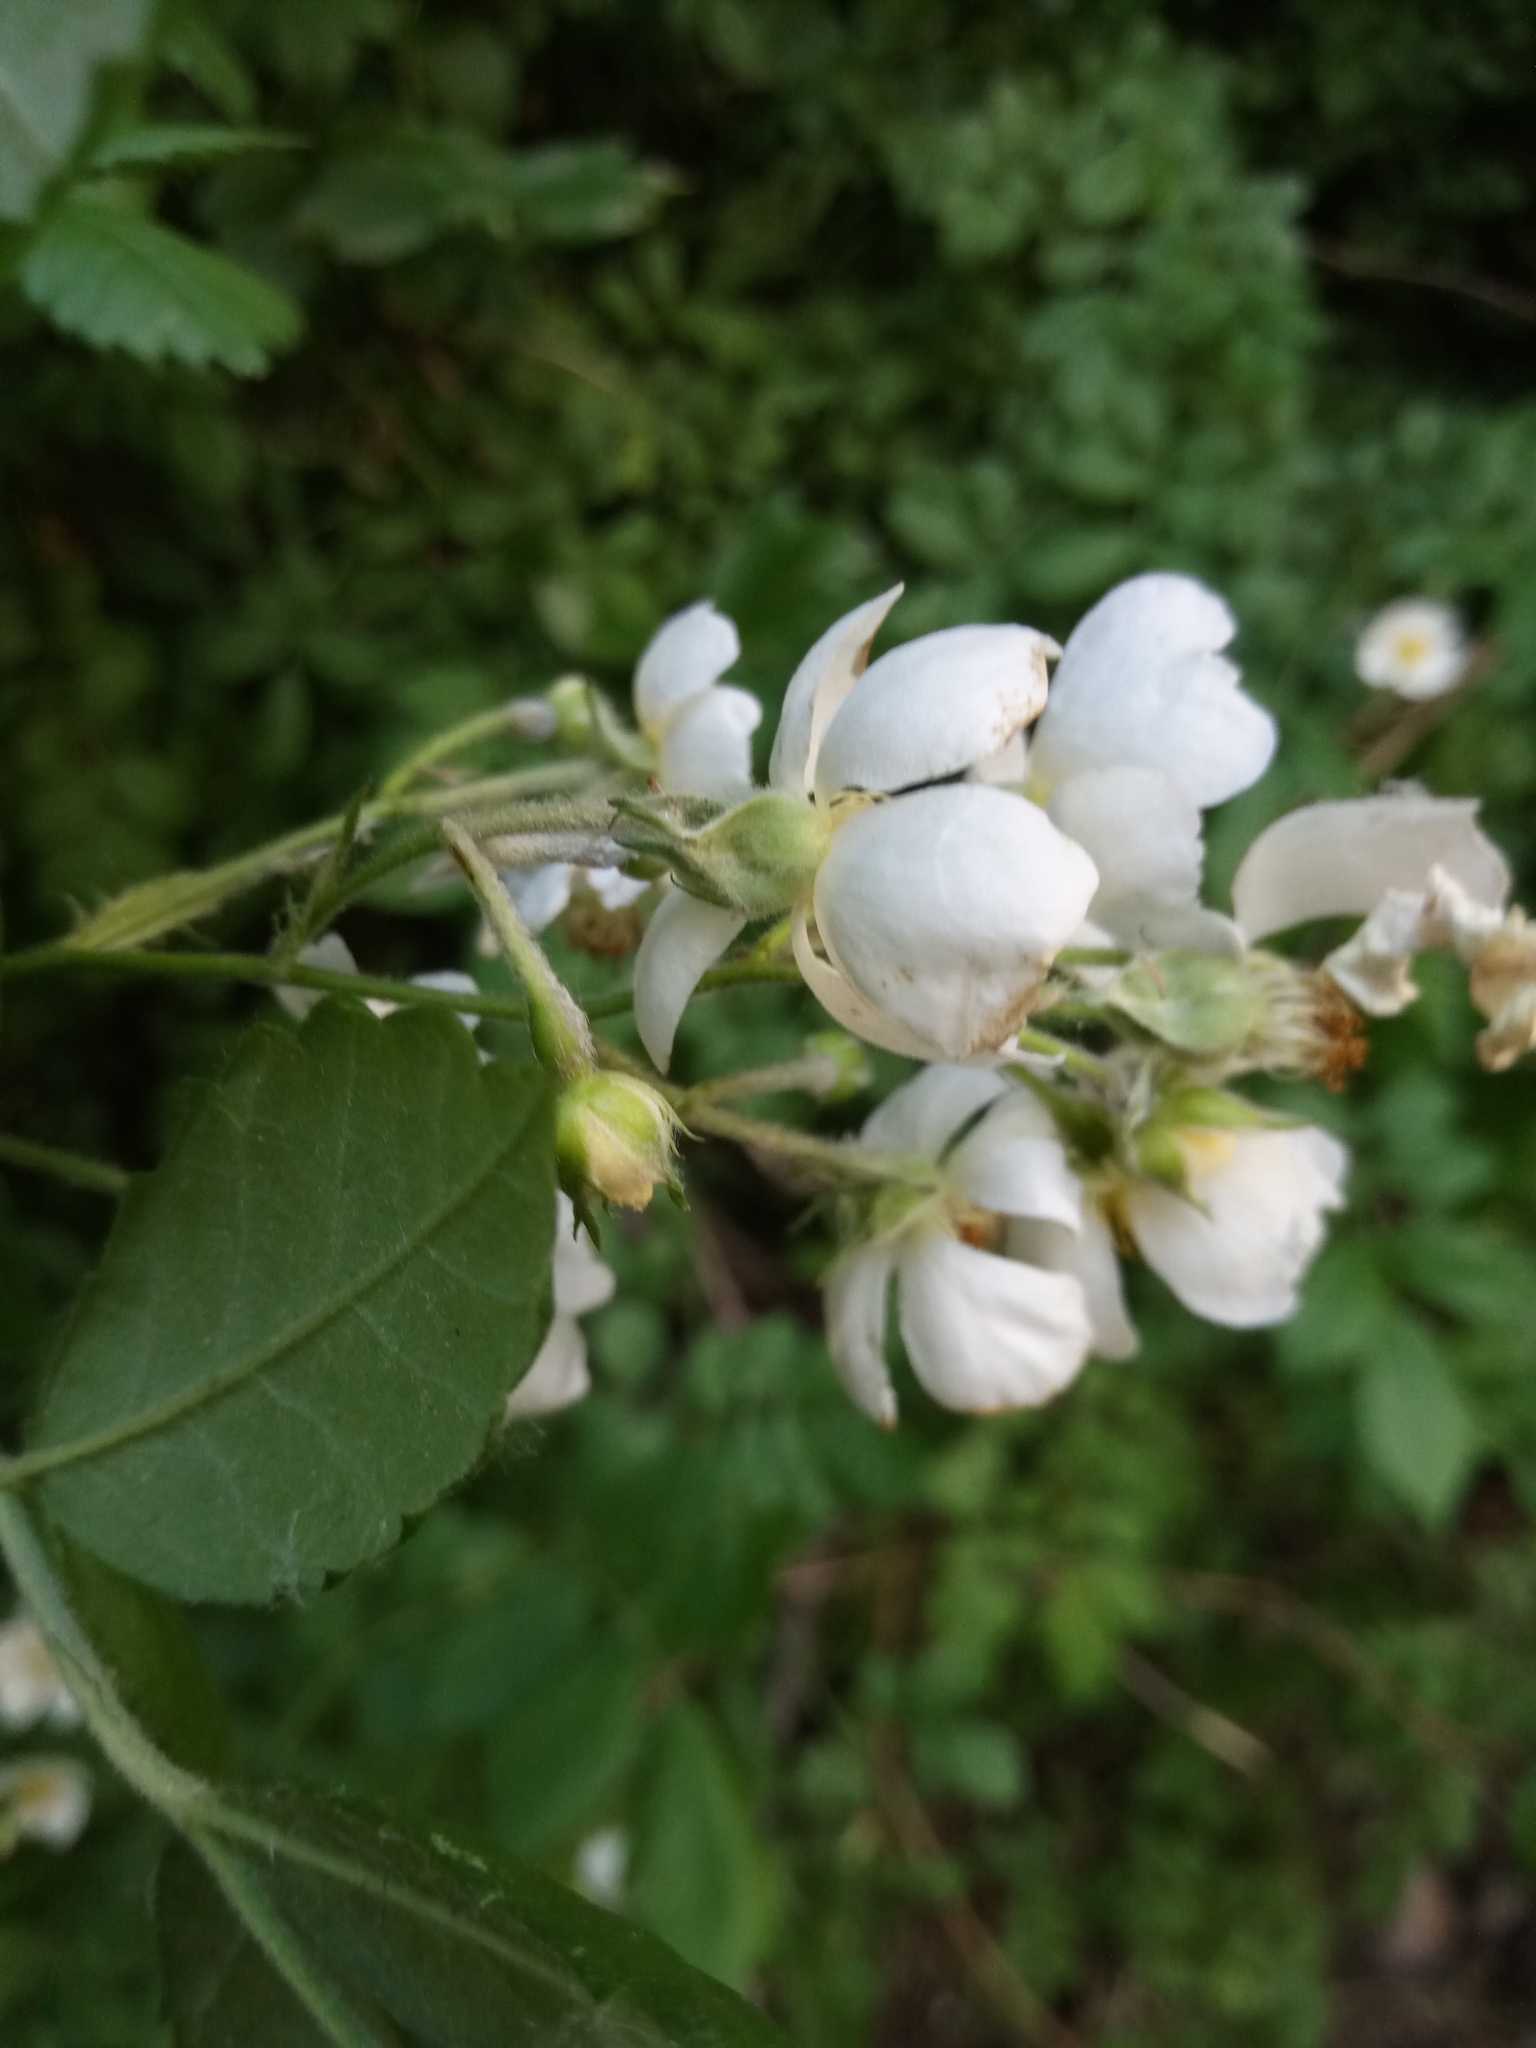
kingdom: Plantae
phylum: Tracheophyta
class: Magnoliopsida
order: Rosales
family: Rosaceae
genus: Rosa
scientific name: Rosa multiflora
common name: Multiflora rose
